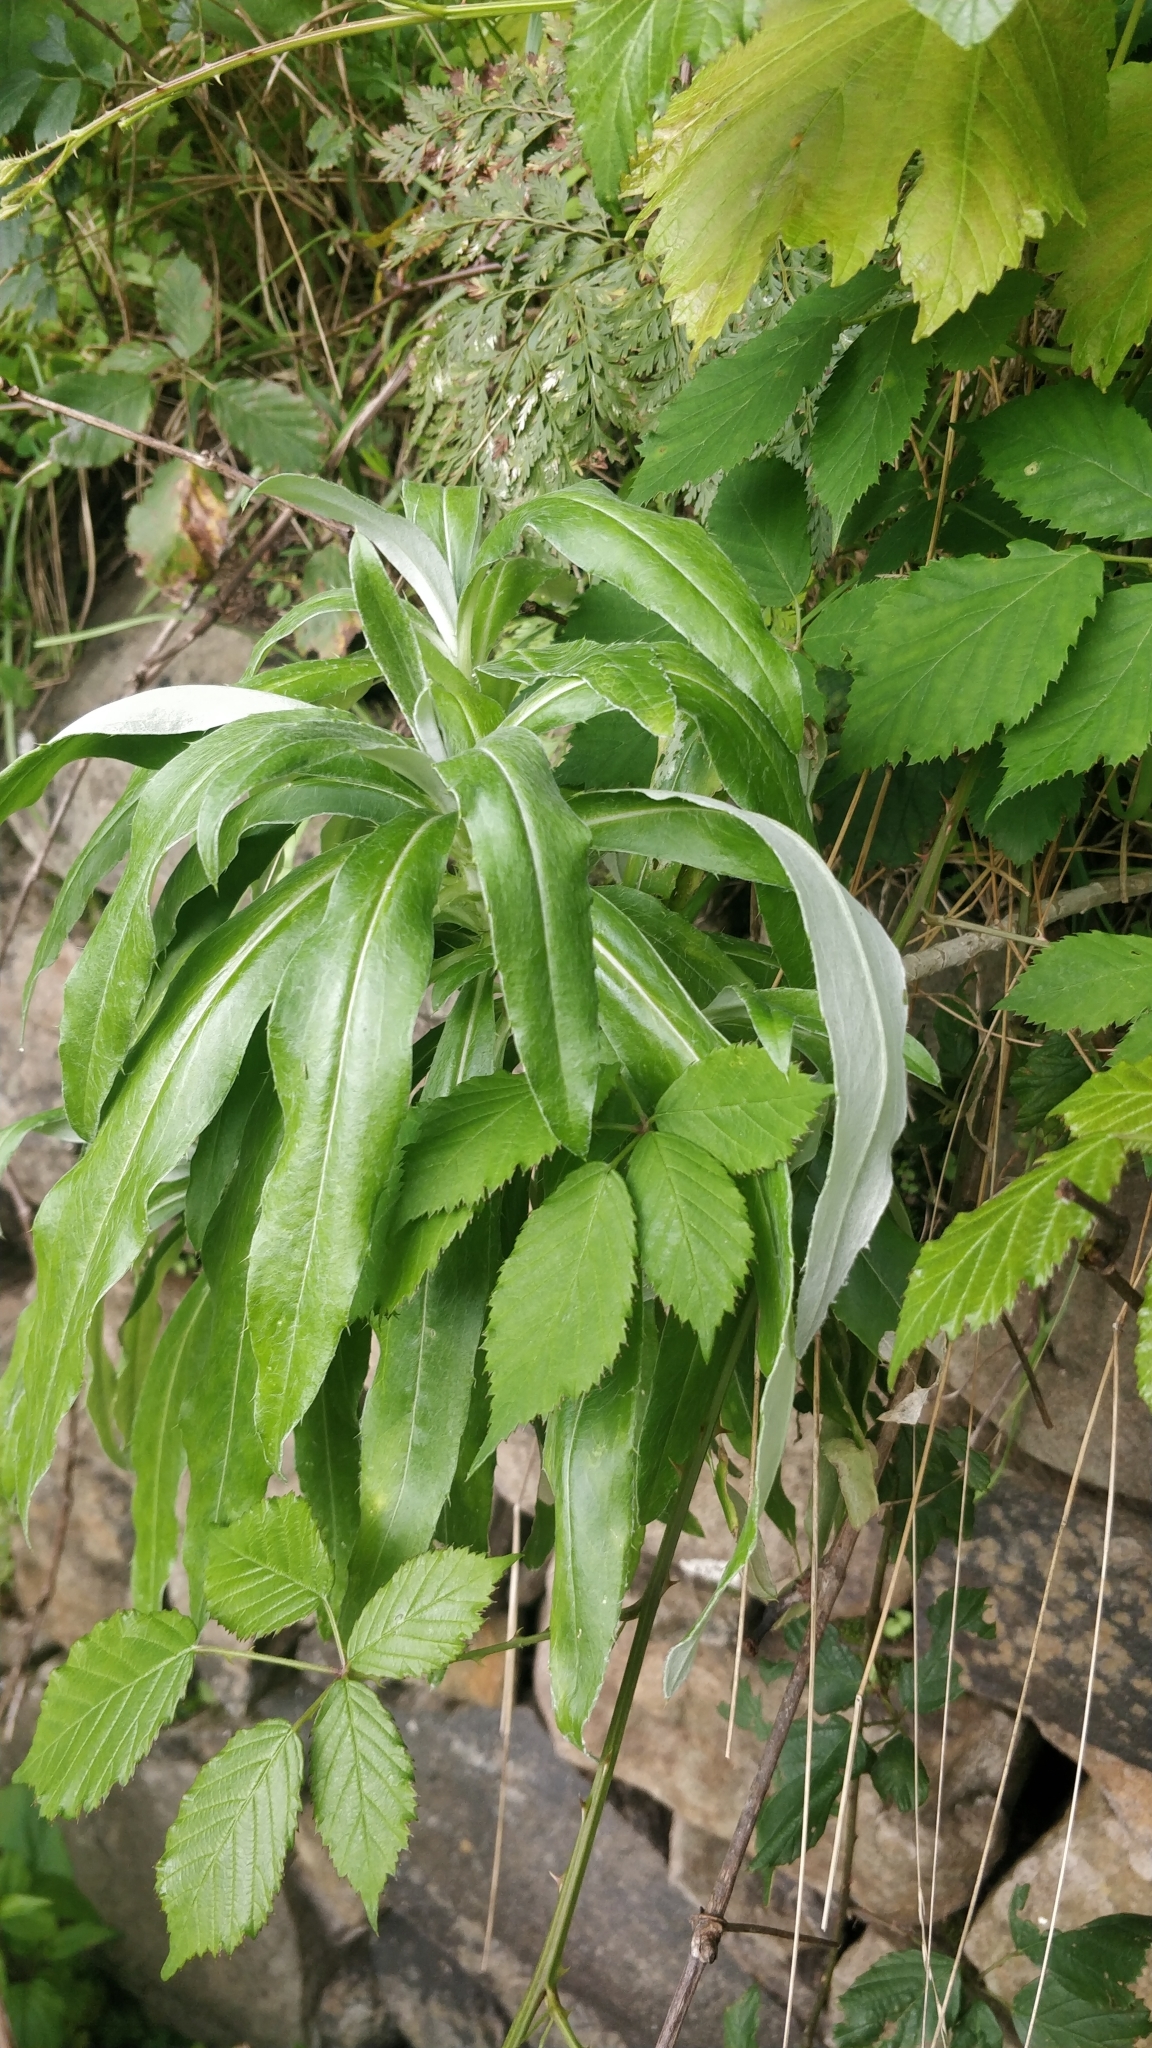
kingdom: Plantae
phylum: Tracheophyta
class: Magnoliopsida
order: Asterales
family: Asteraceae
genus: Carlina
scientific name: Carlina salicifolia
